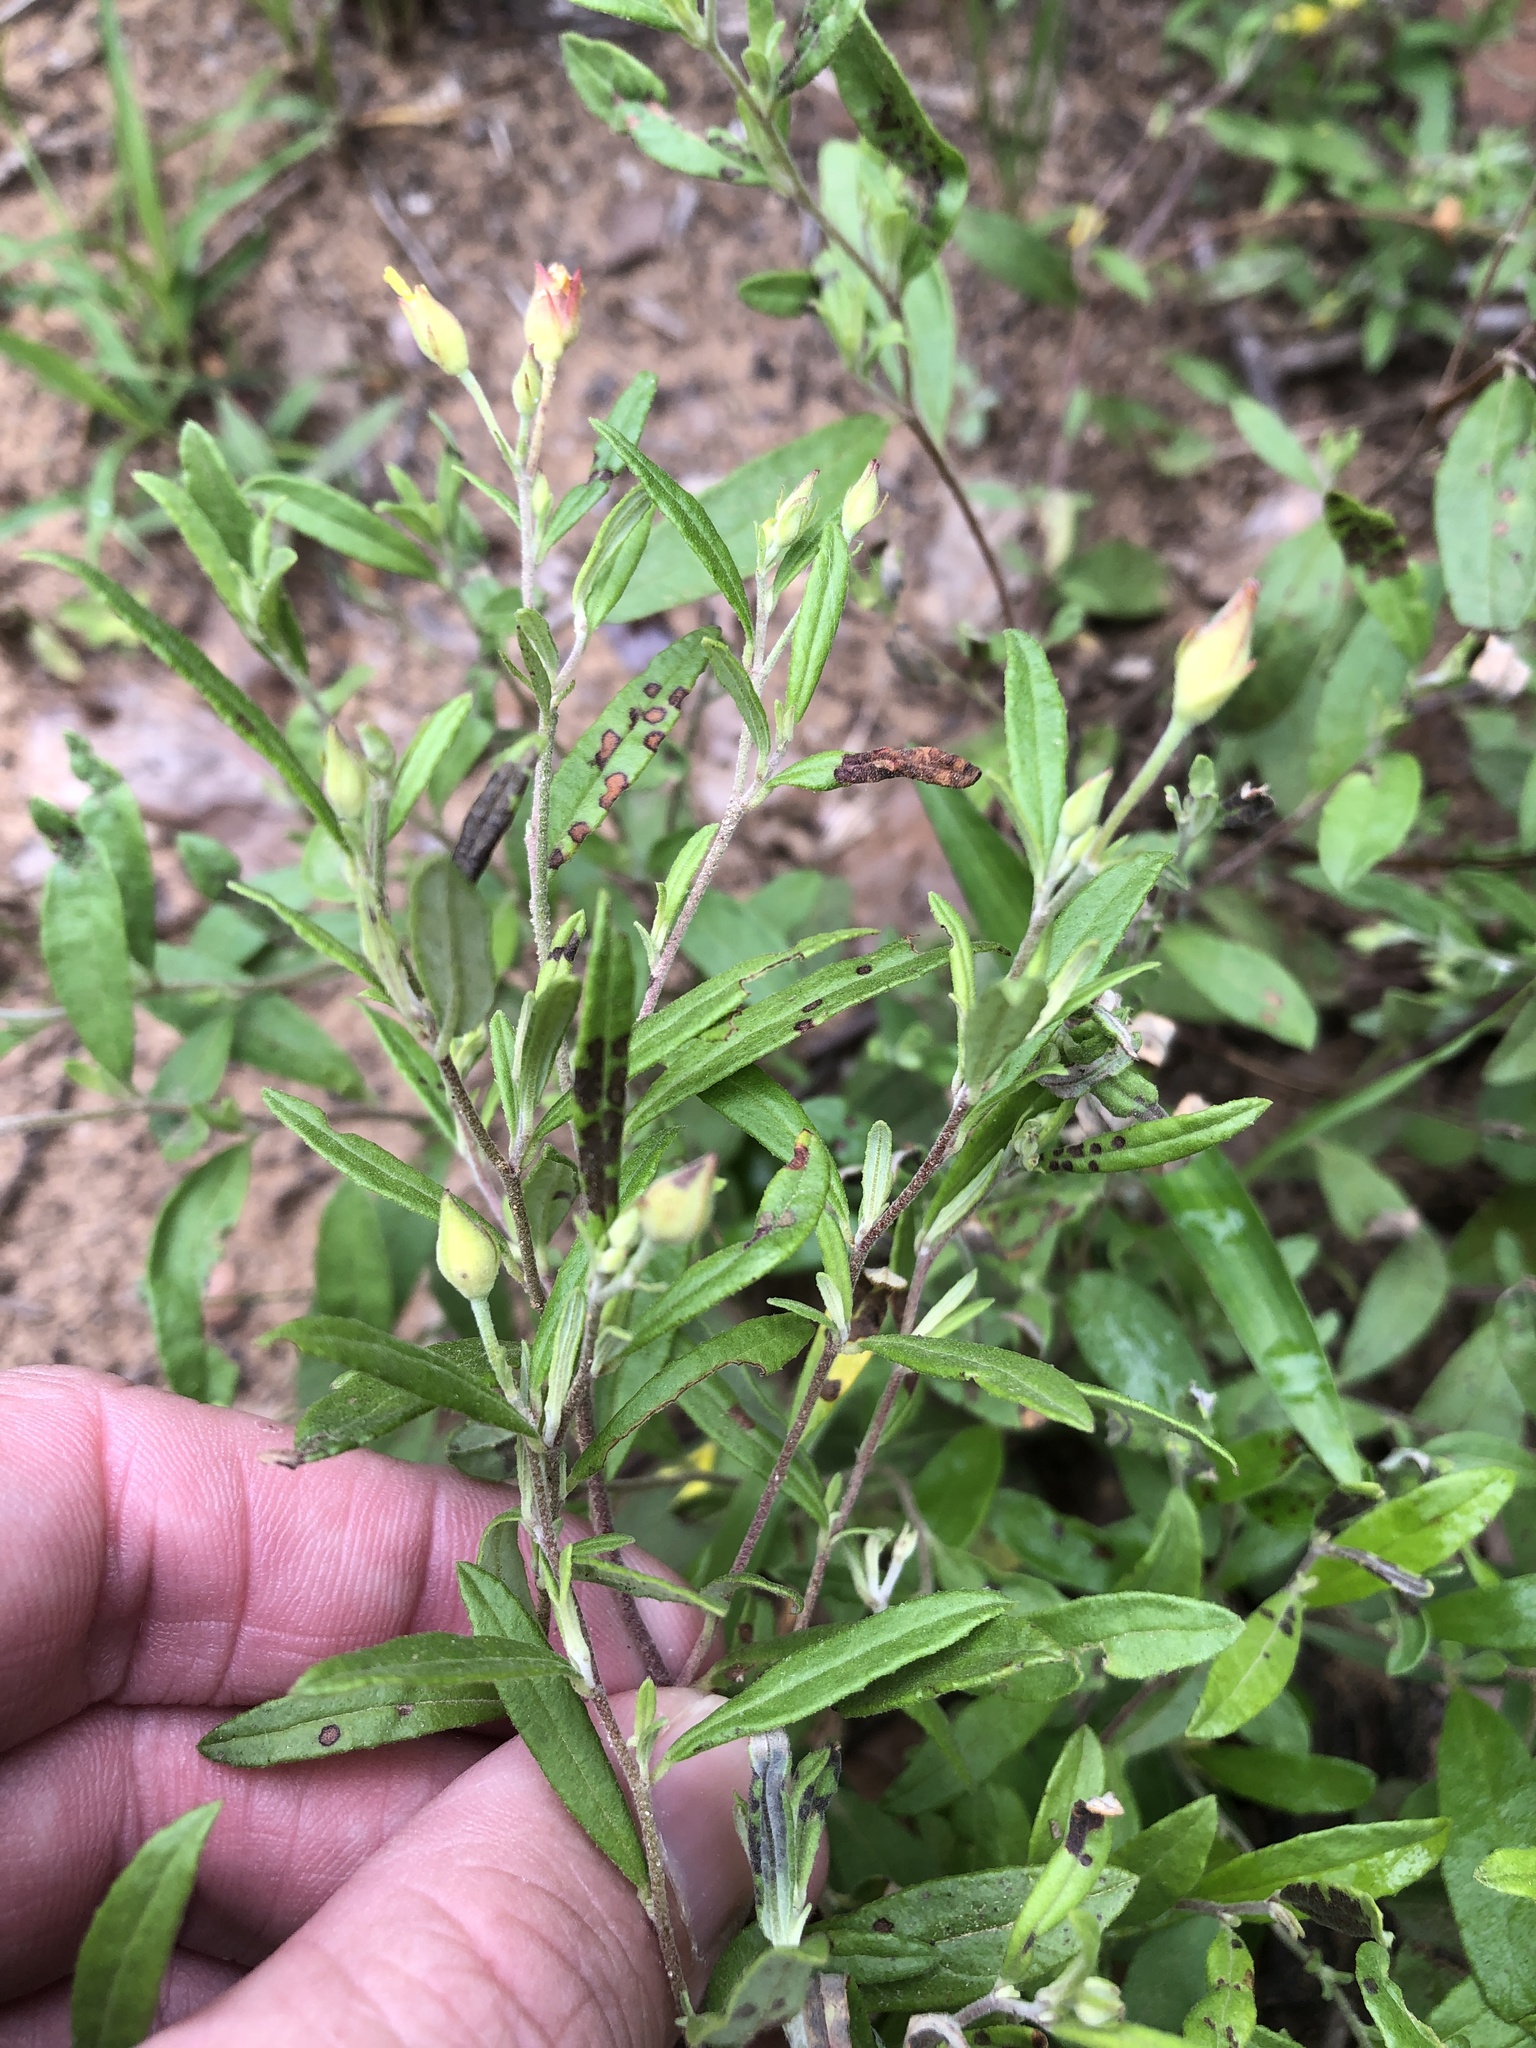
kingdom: Plantae
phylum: Tracheophyta
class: Magnoliopsida
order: Malvales
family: Cistaceae
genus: Crocanthemum
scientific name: Crocanthemum georgianum
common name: Georgia frostweed
